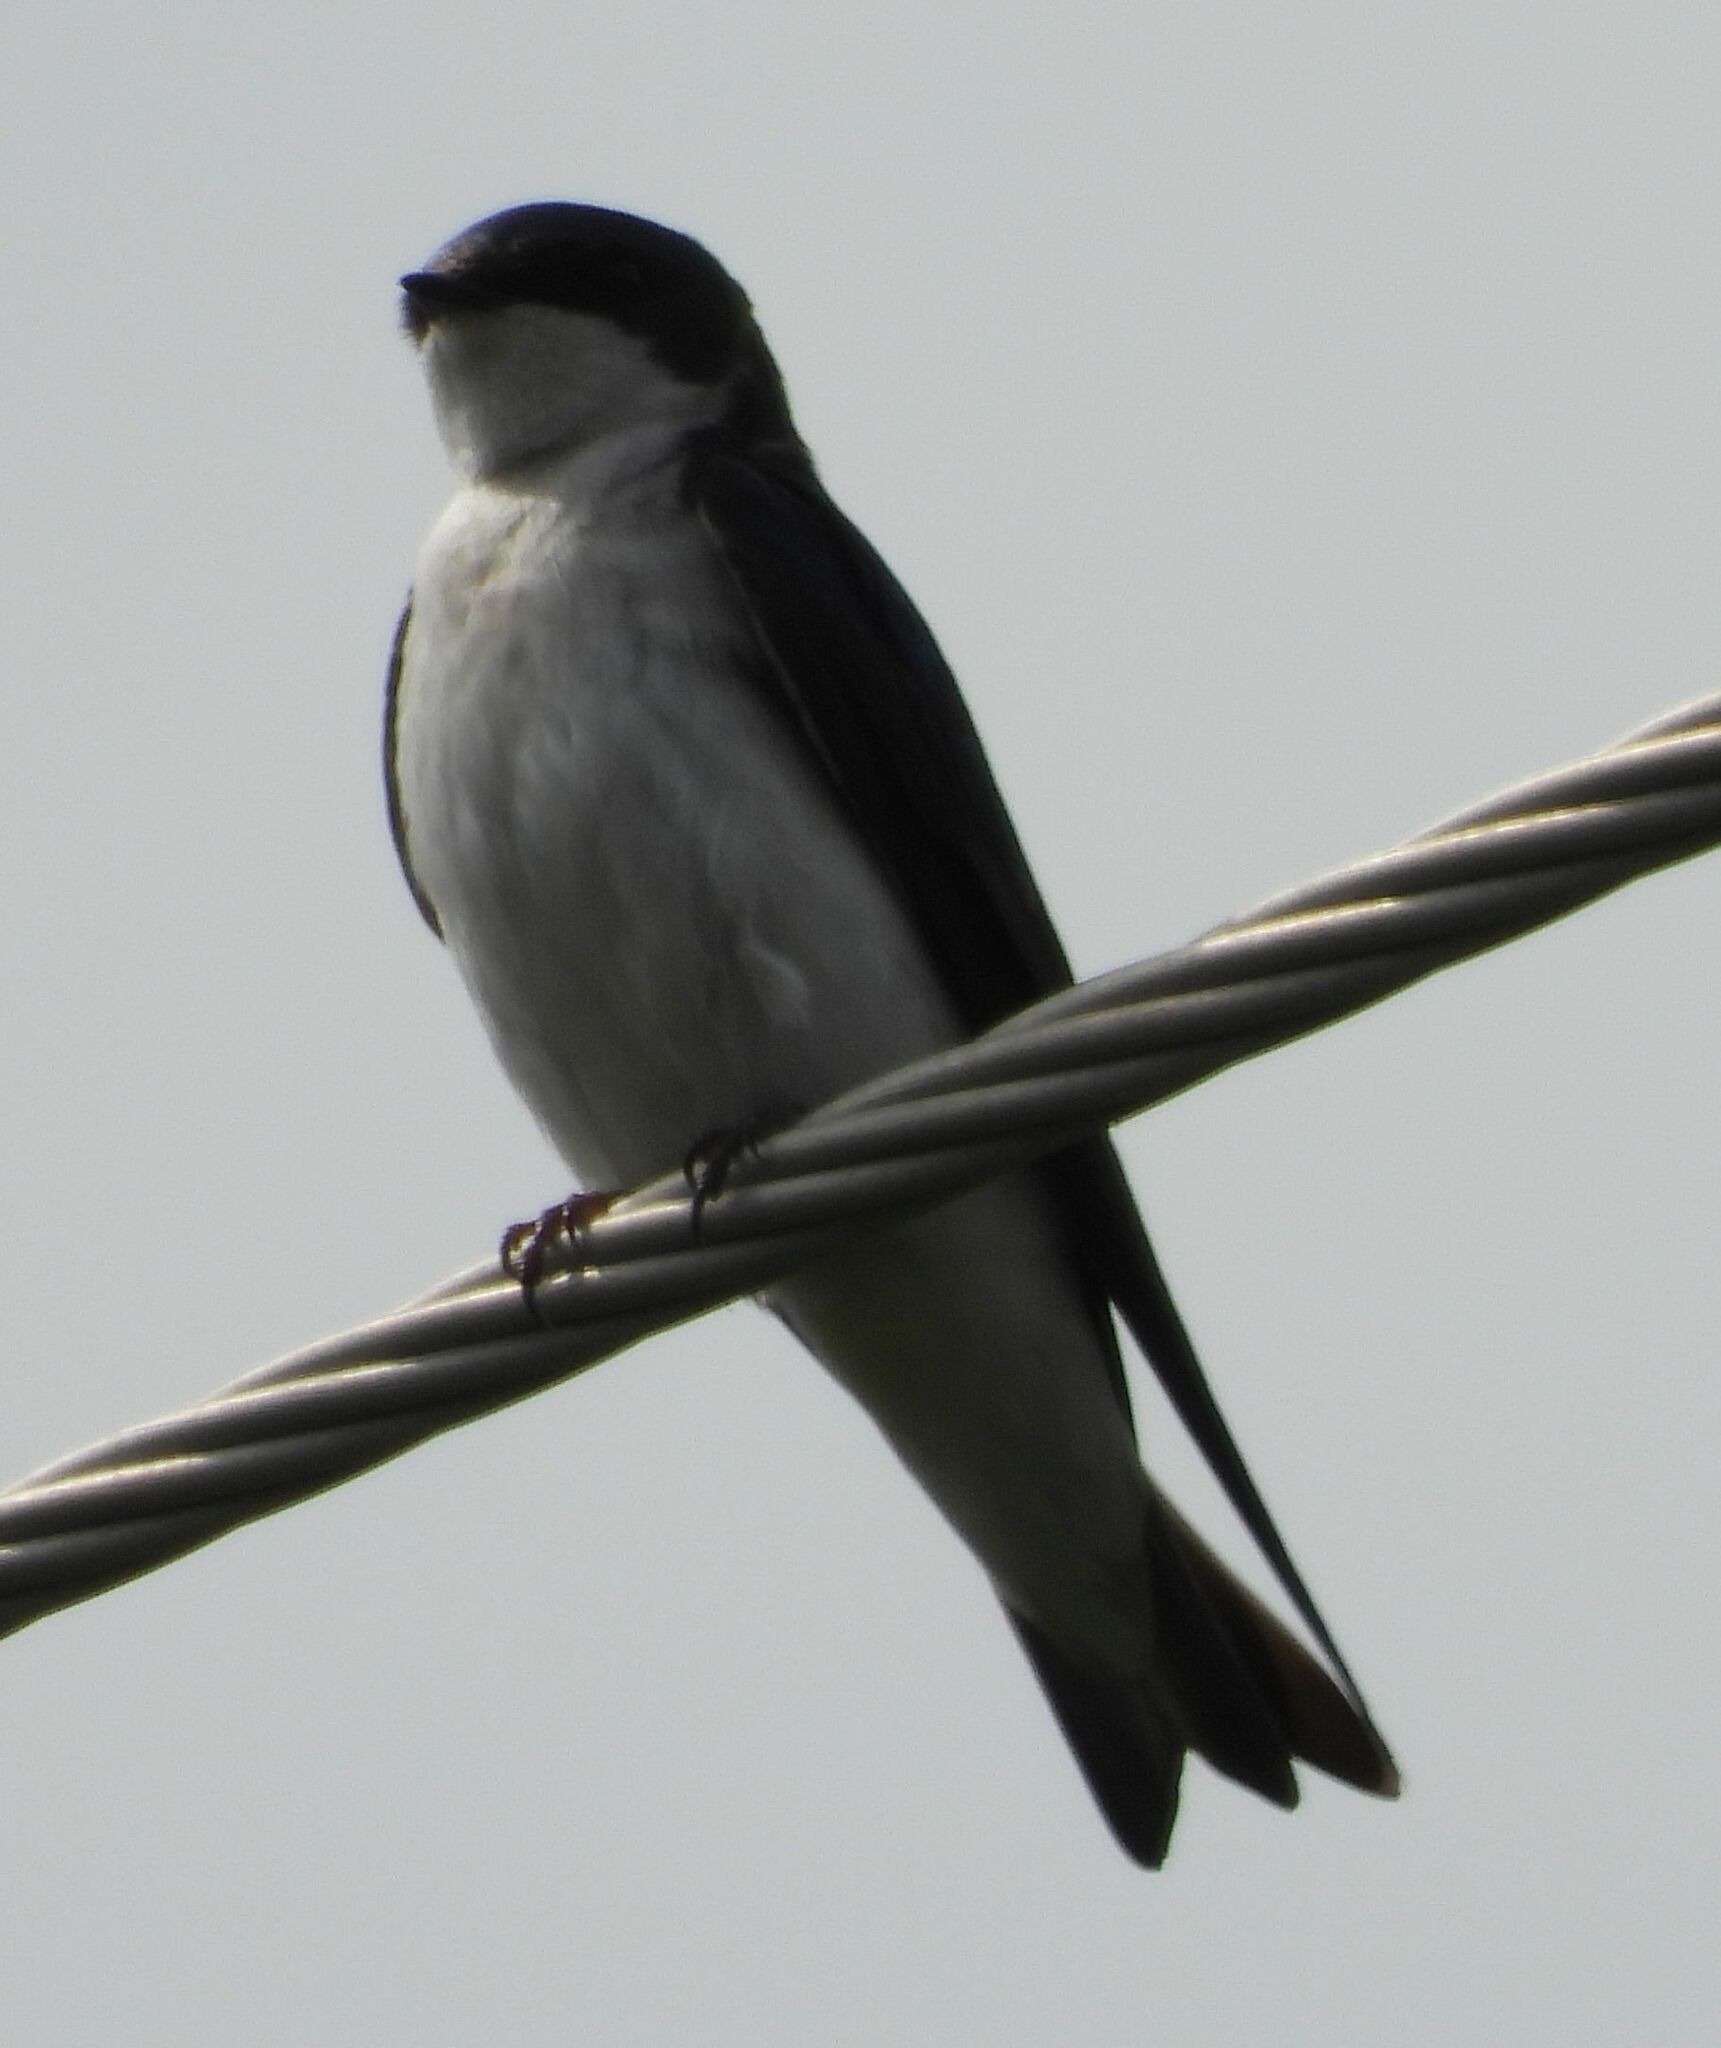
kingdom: Animalia
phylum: Chordata
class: Aves
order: Passeriformes
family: Hirundinidae
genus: Tachycineta
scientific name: Tachycineta bicolor
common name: Tree swallow
